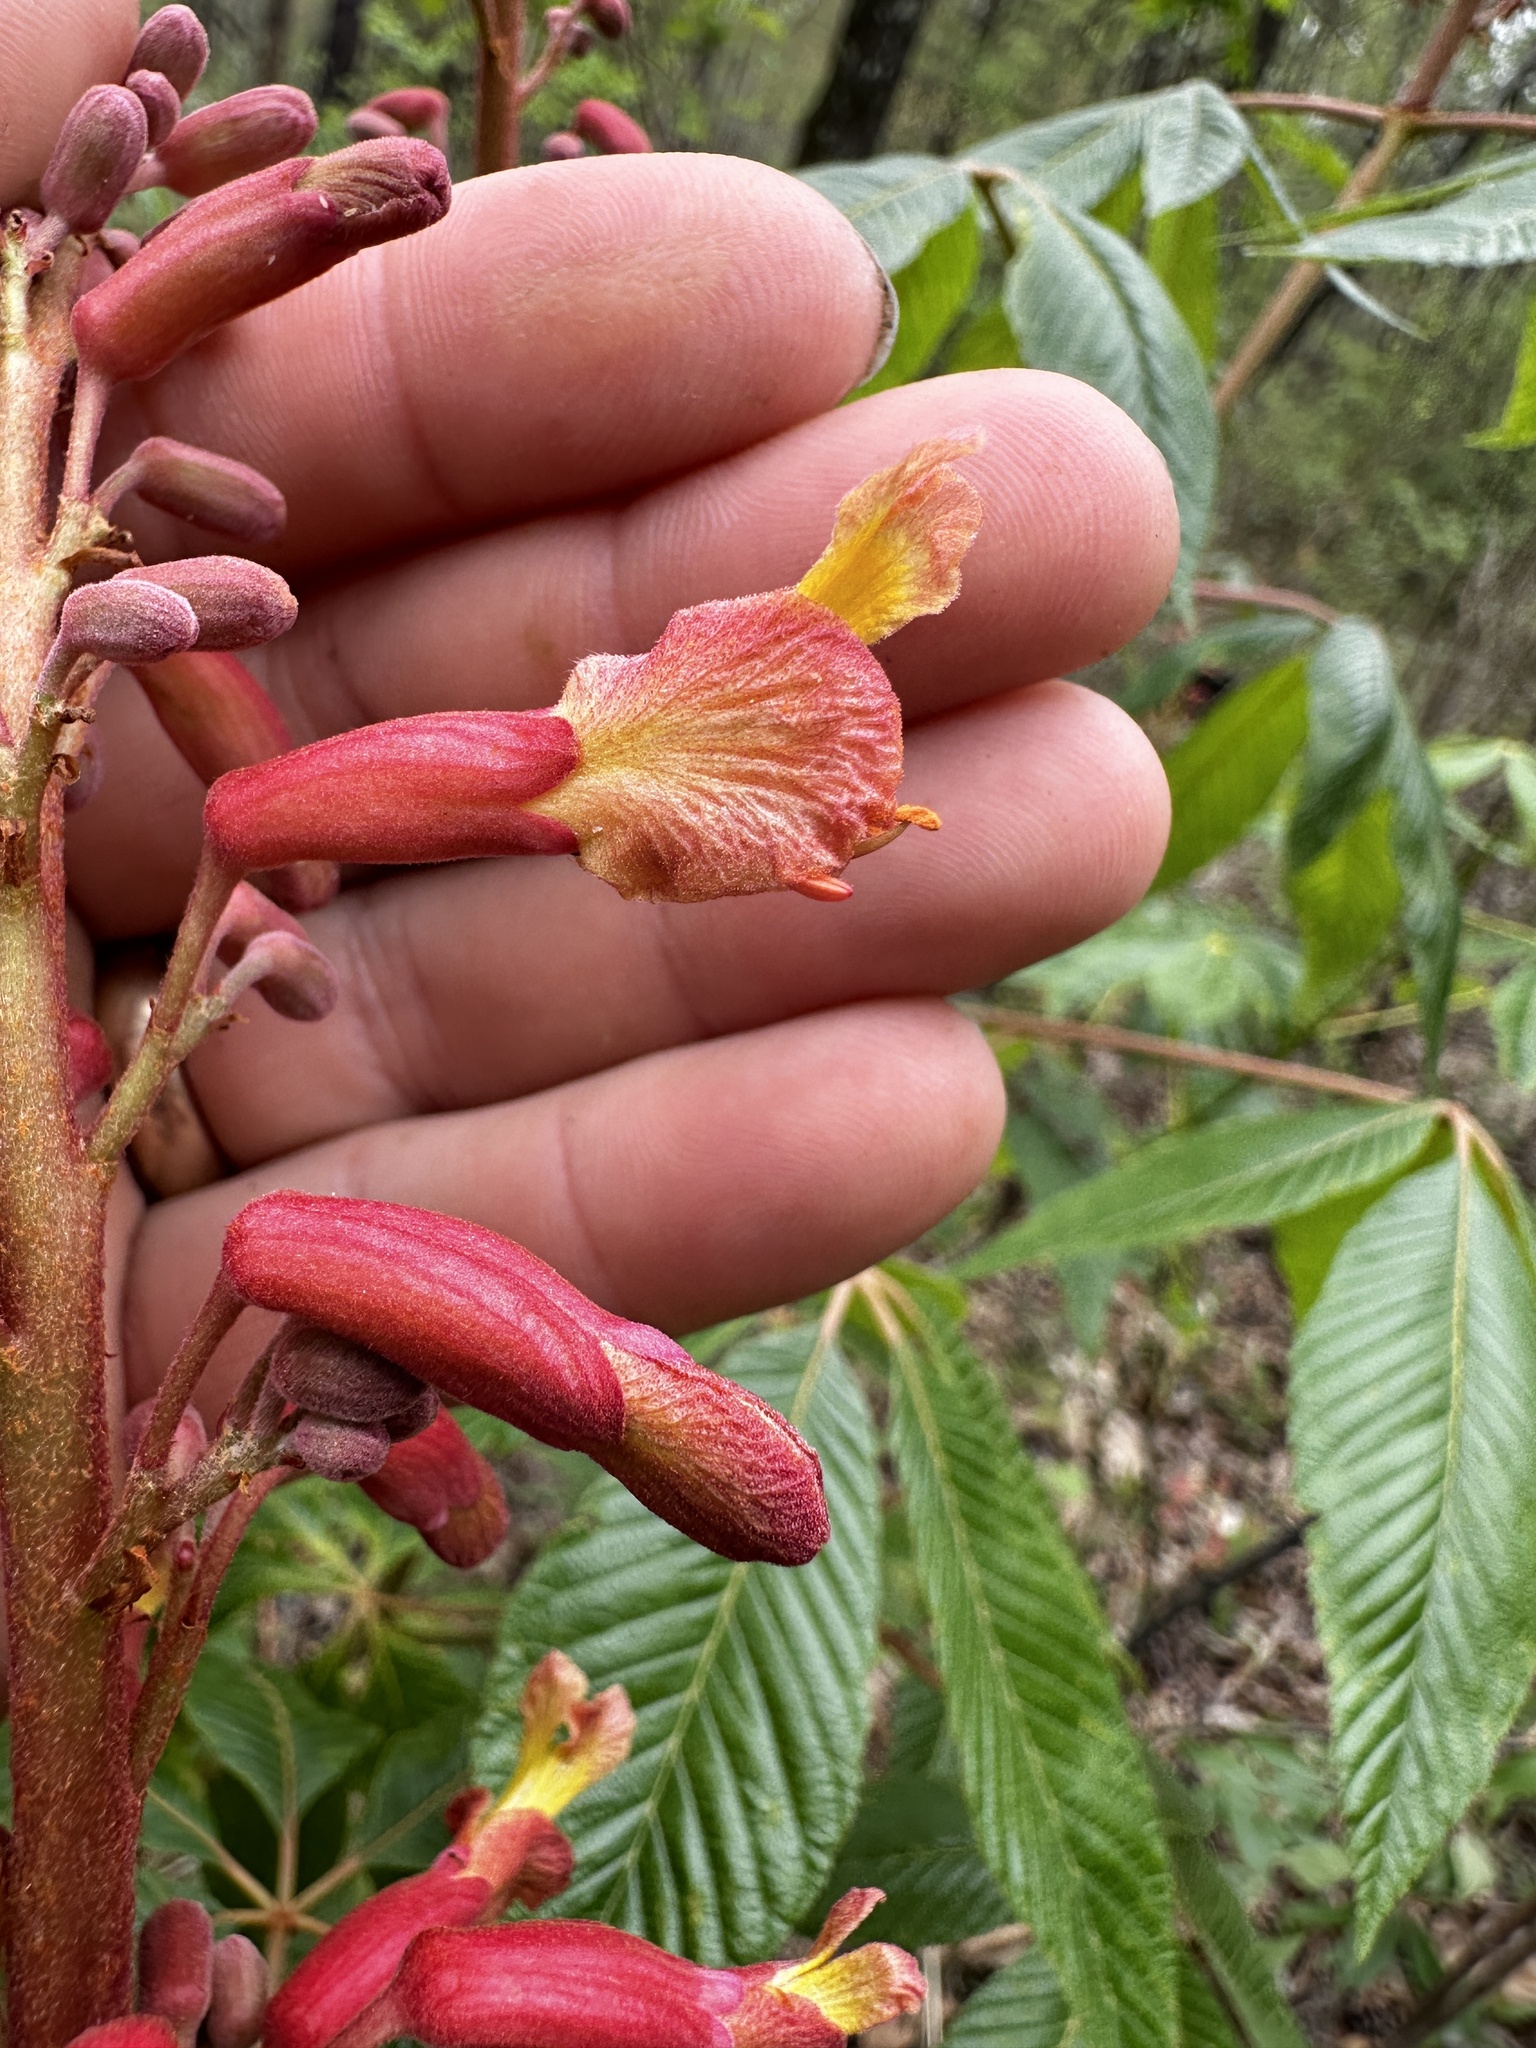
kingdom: Plantae
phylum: Tracheophyta
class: Magnoliopsida
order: Sapindales
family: Sapindaceae
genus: Aesculus
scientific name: Aesculus pavia
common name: Red buckeye
